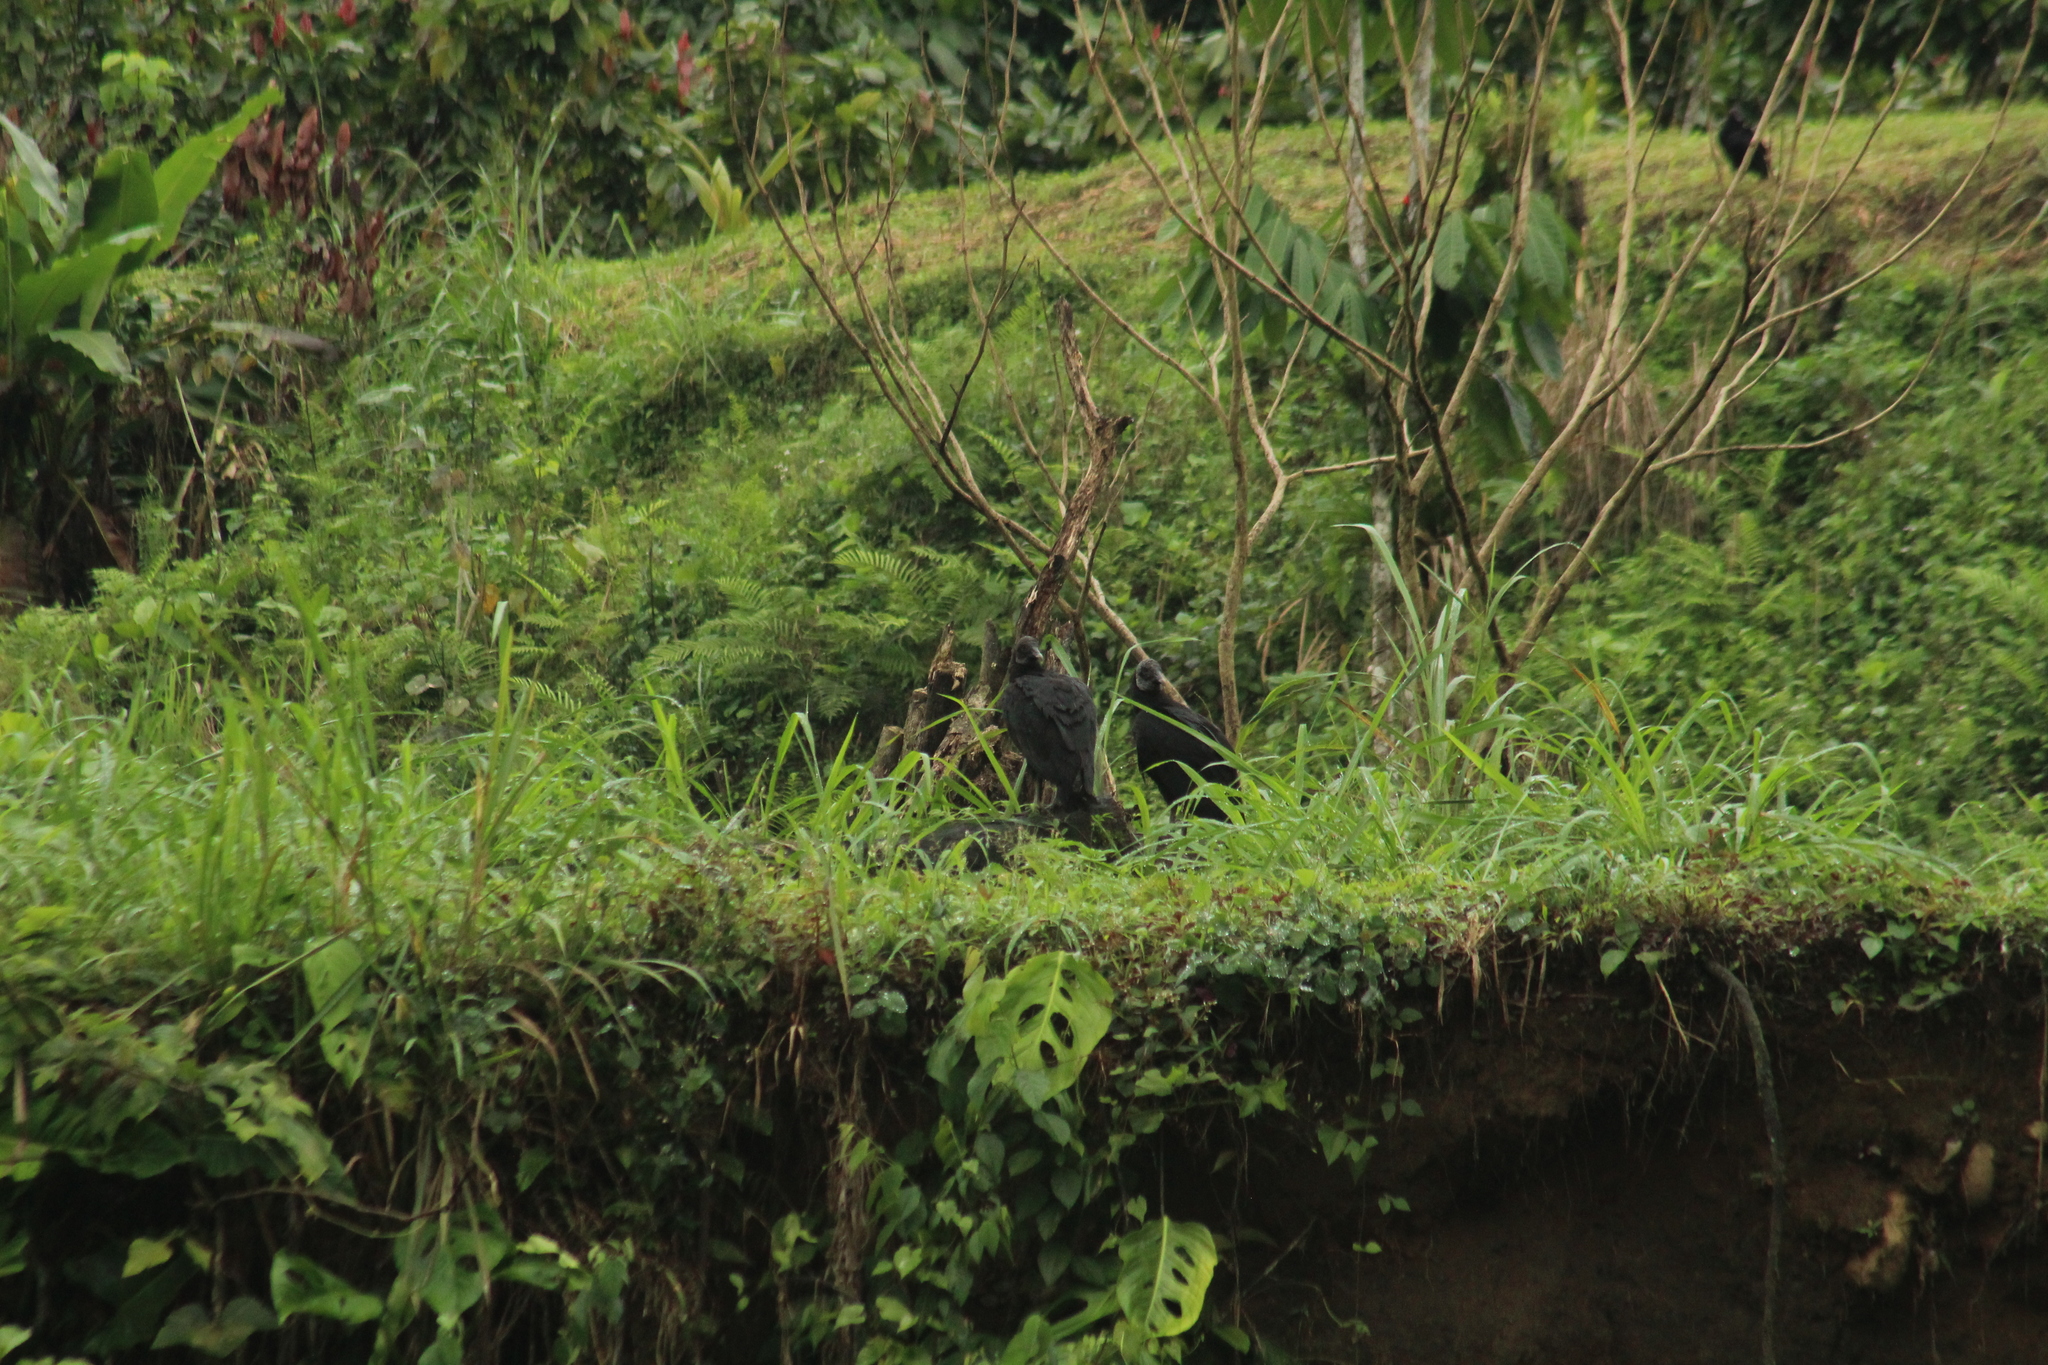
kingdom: Animalia
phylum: Chordata
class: Aves
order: Accipitriformes
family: Cathartidae
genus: Coragyps
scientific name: Coragyps atratus
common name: Black vulture
